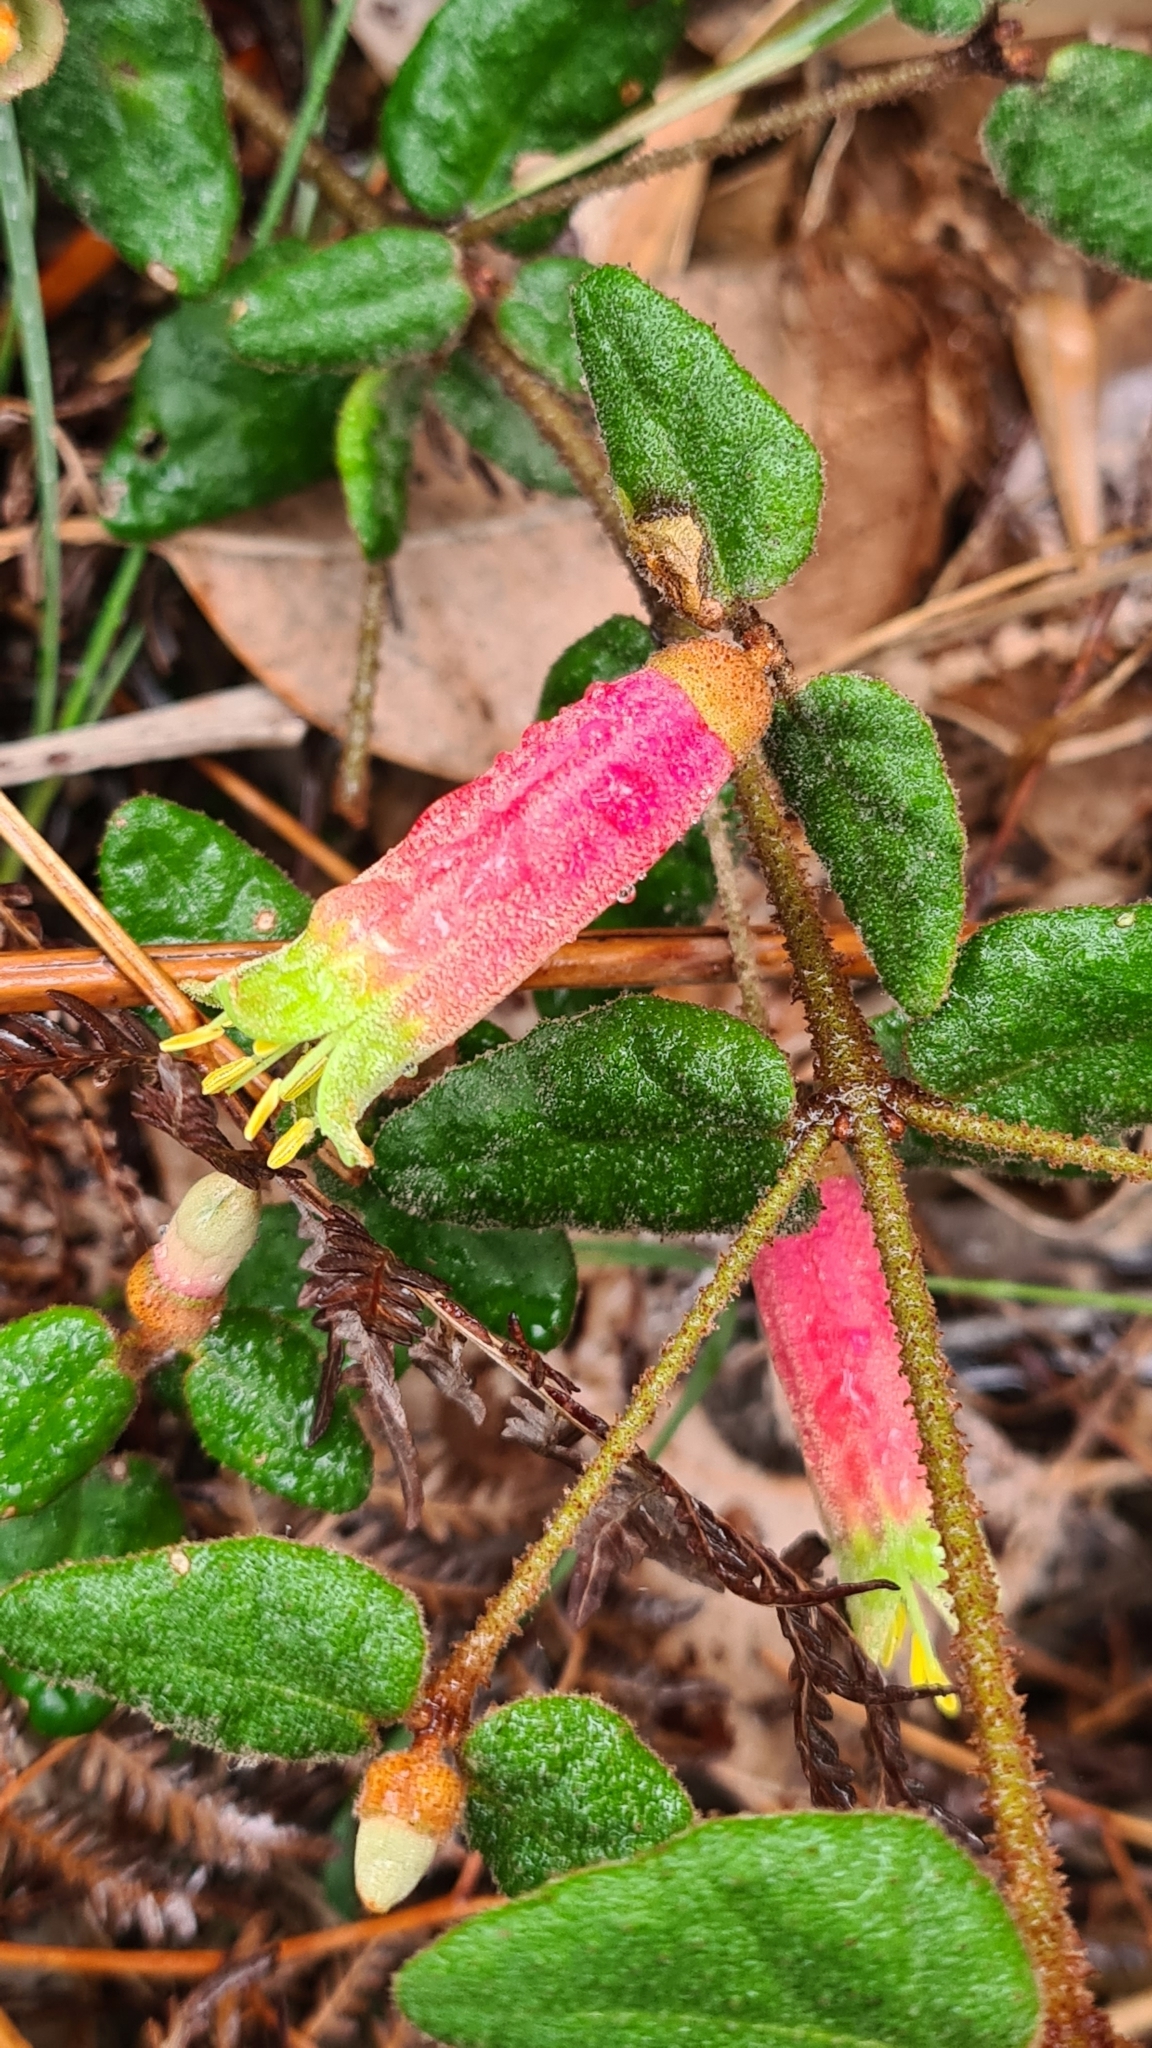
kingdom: Plantae
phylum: Tracheophyta
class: Magnoliopsida
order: Sapindales
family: Rutaceae
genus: Correa
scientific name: Correa reflexa
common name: Common correa
